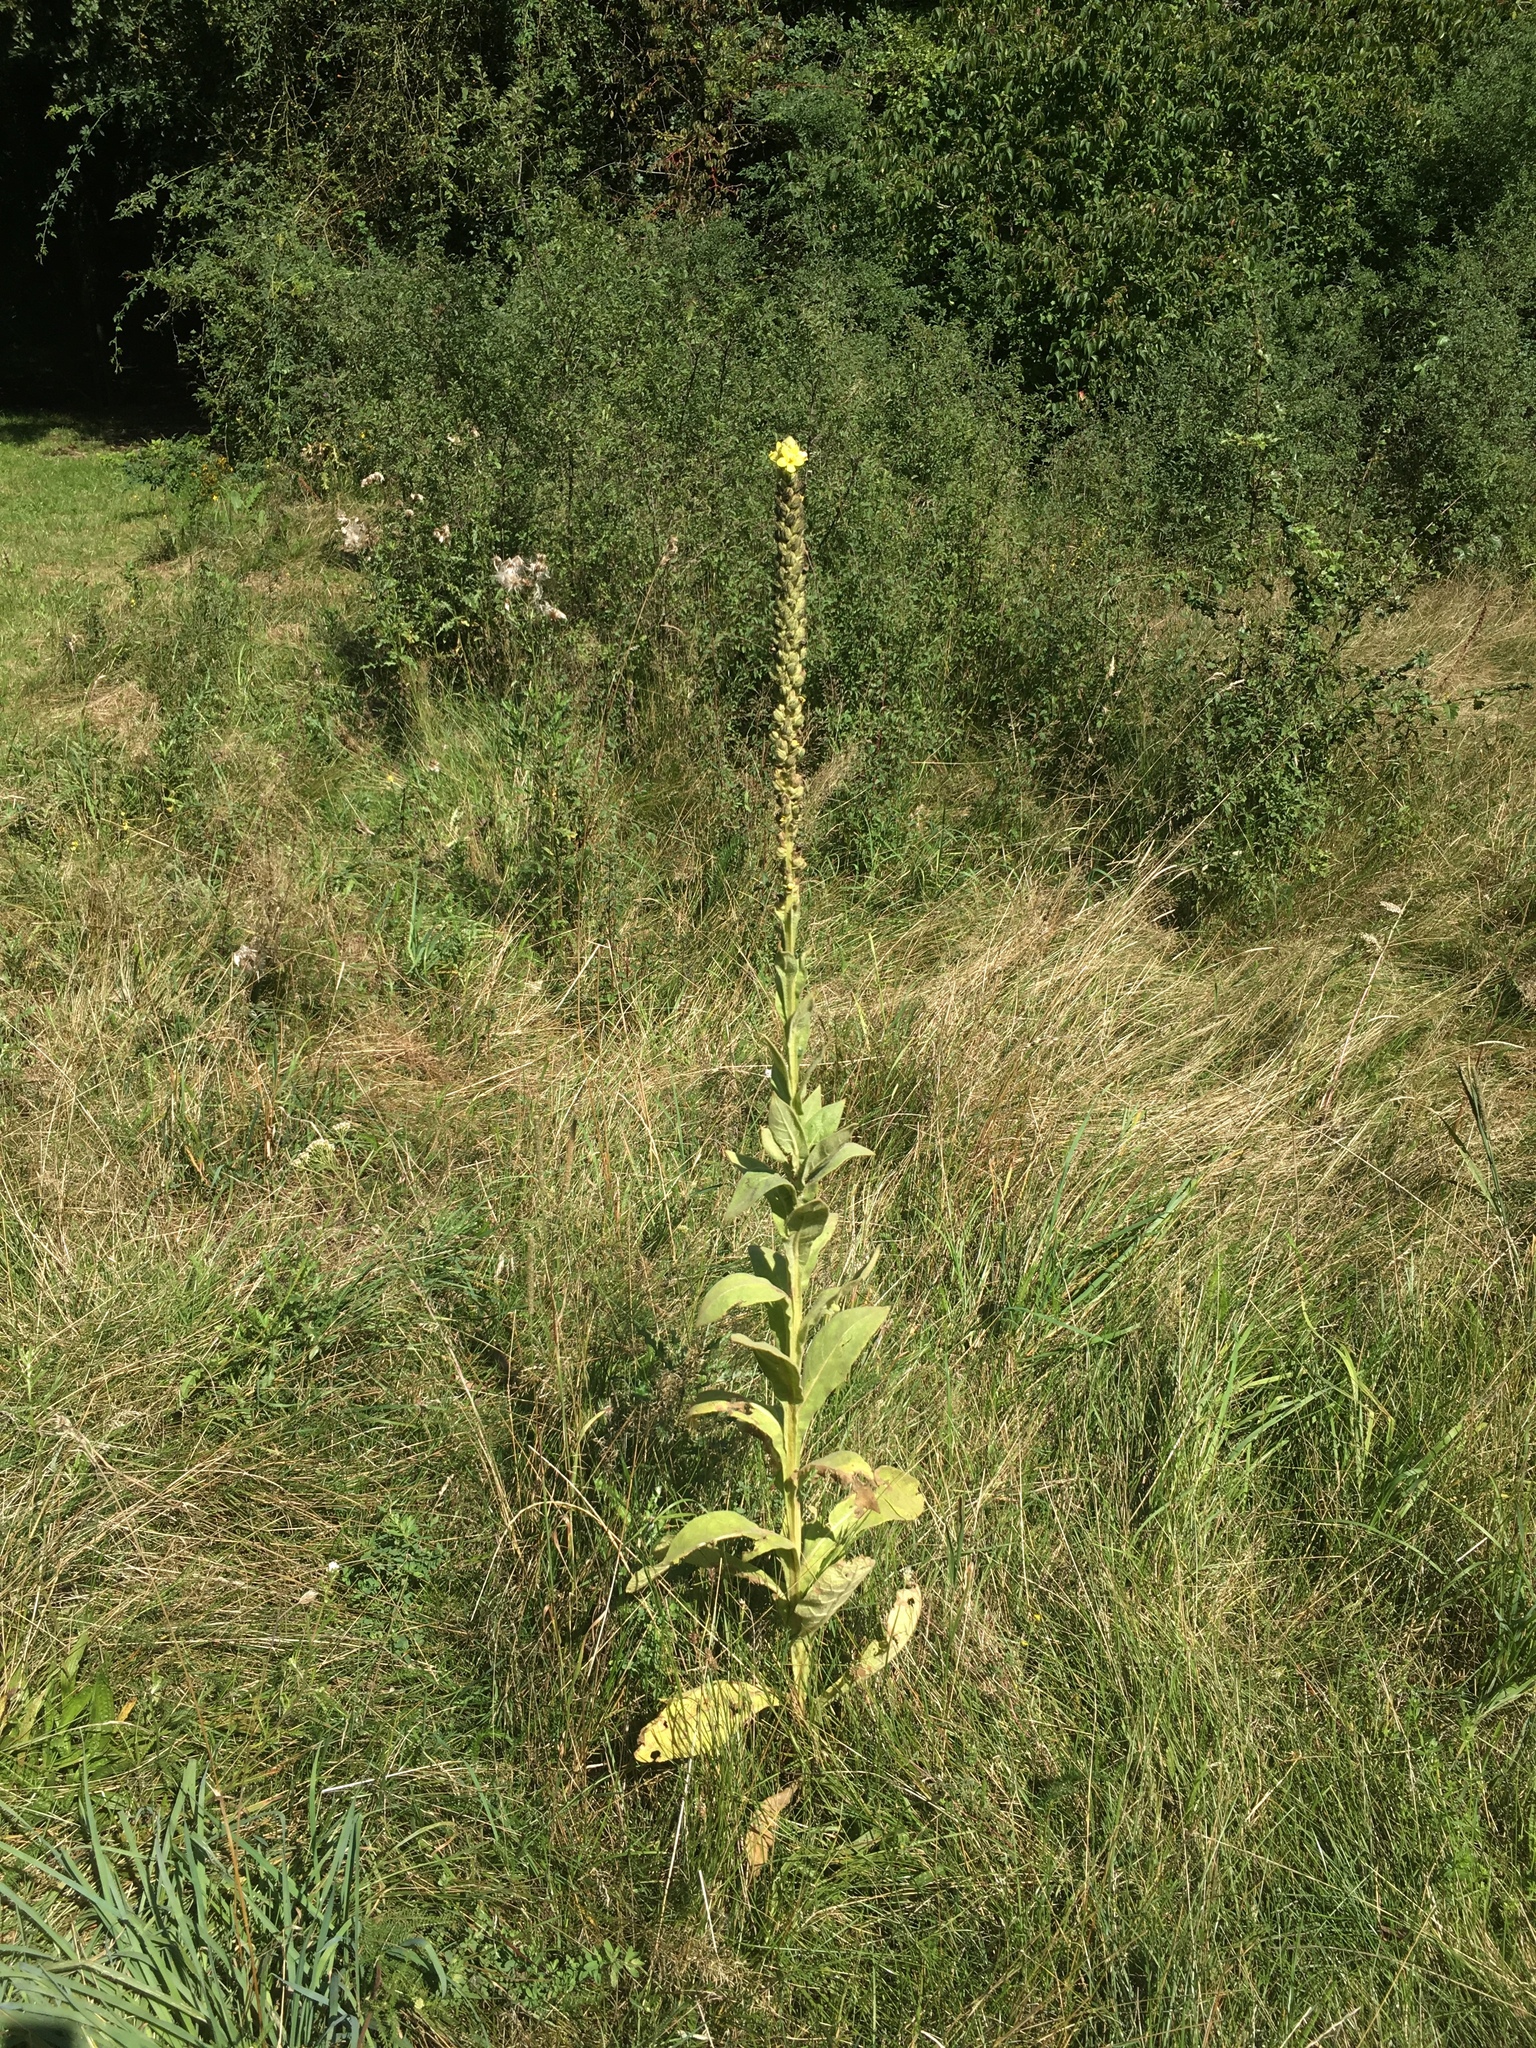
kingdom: Plantae
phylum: Tracheophyta
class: Magnoliopsida
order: Lamiales
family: Scrophulariaceae
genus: Verbascum
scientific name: Verbascum thapsus
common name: Common mullein
